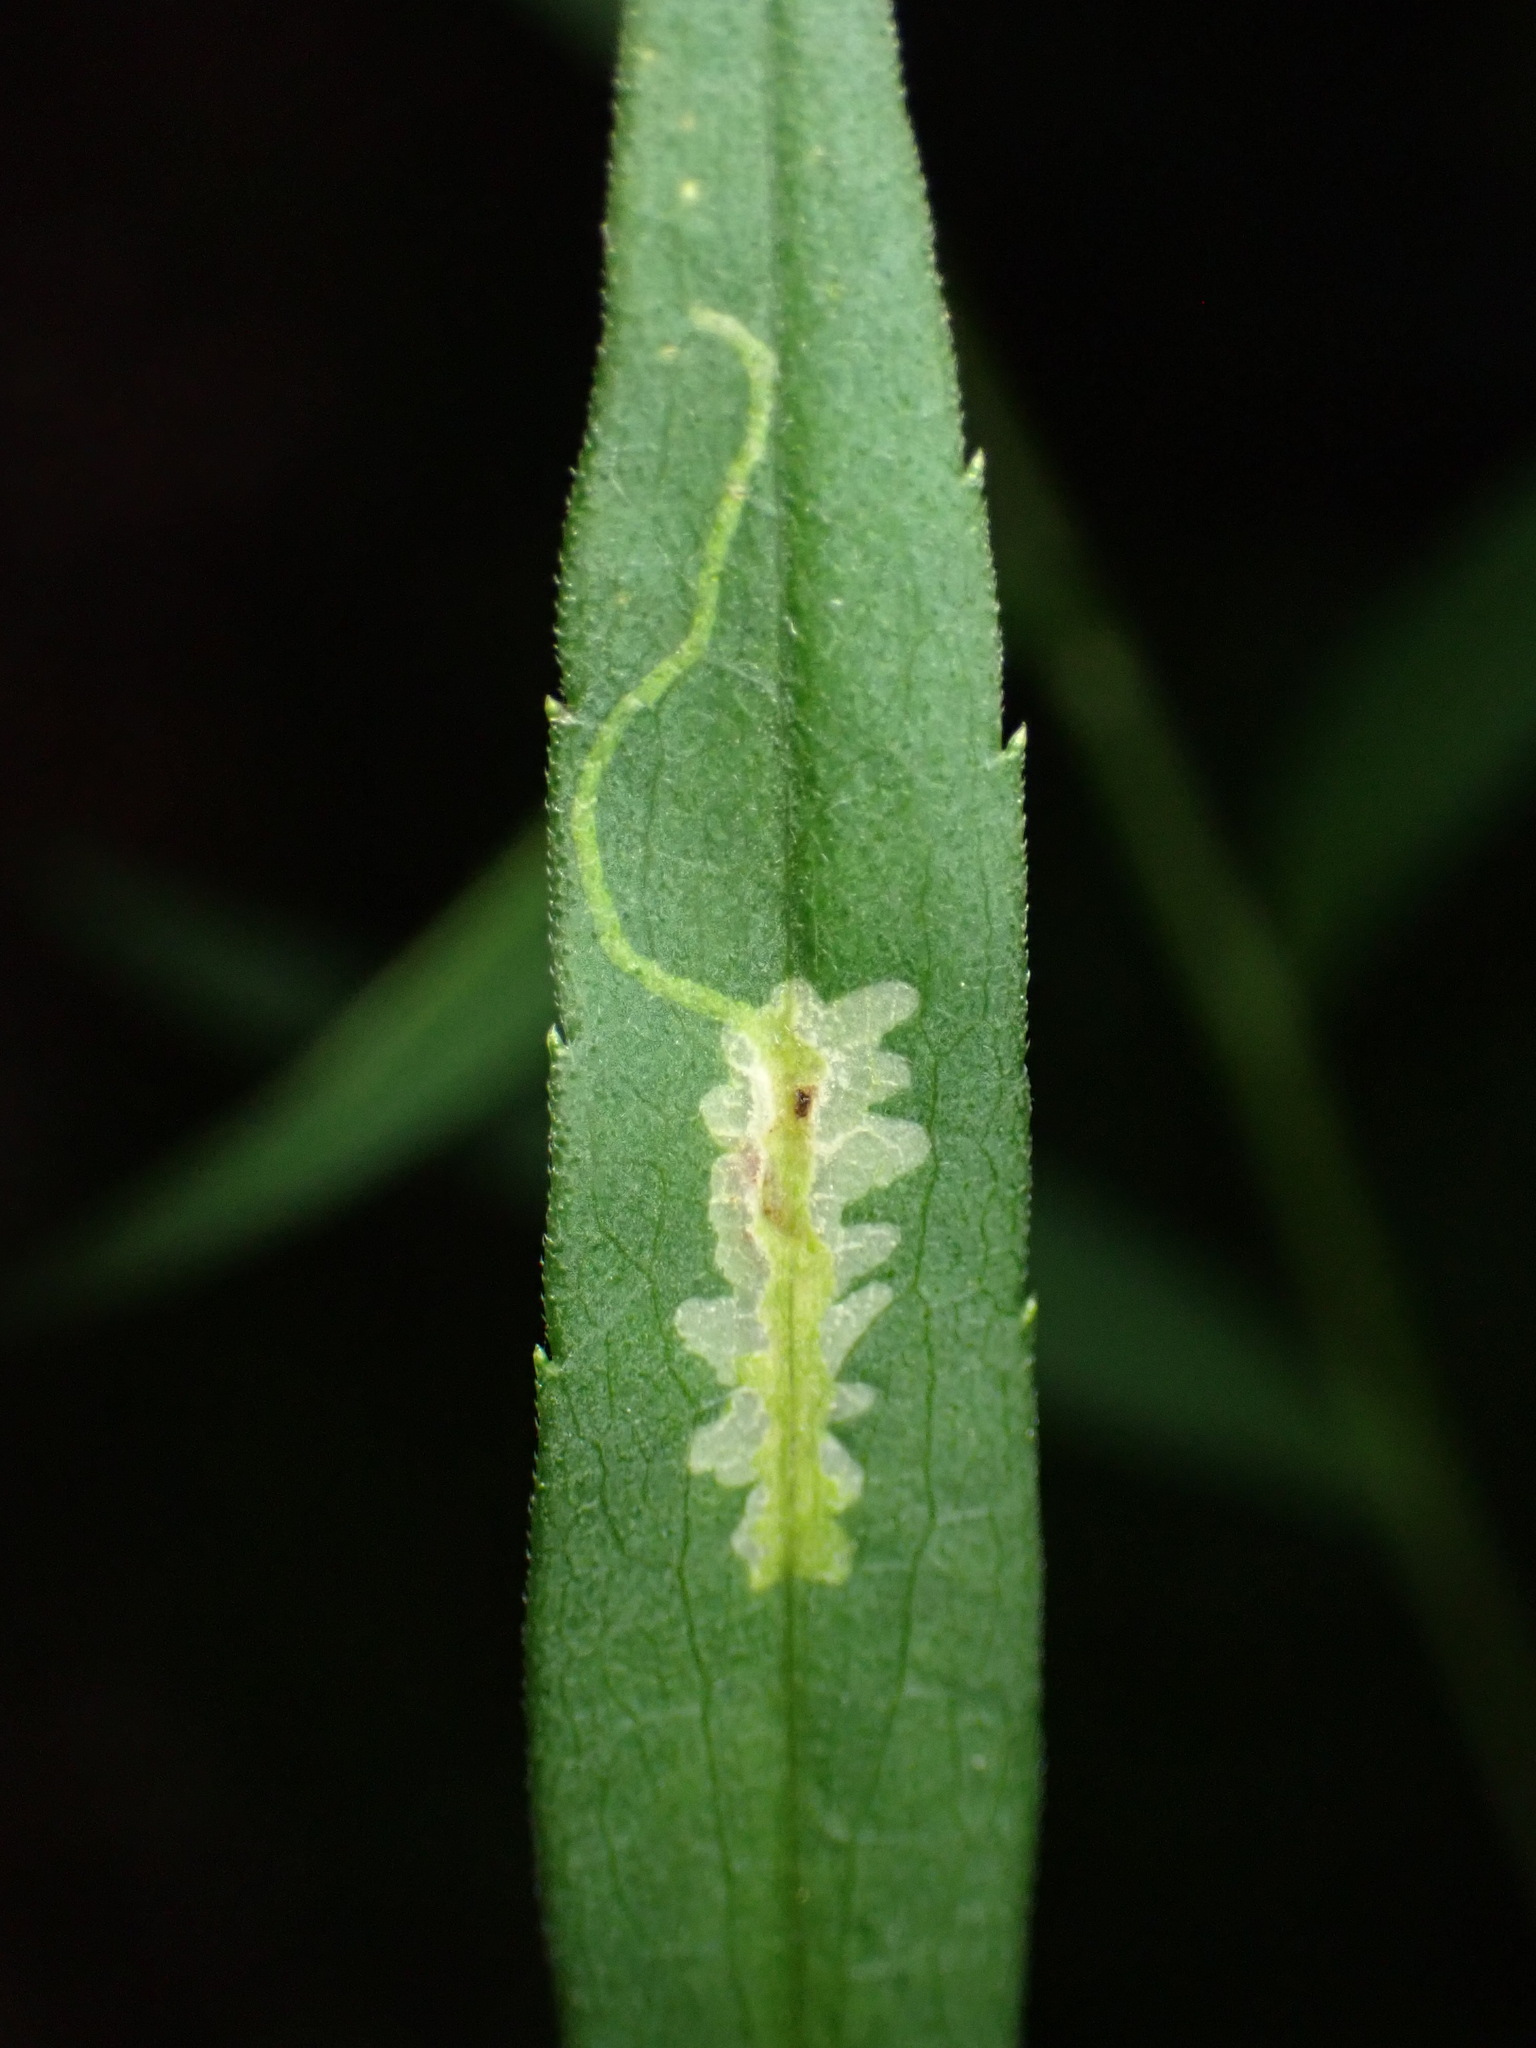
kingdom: Animalia
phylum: Arthropoda
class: Insecta
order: Diptera
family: Agromyzidae
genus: Calycomyza
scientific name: Calycomyza promissa
